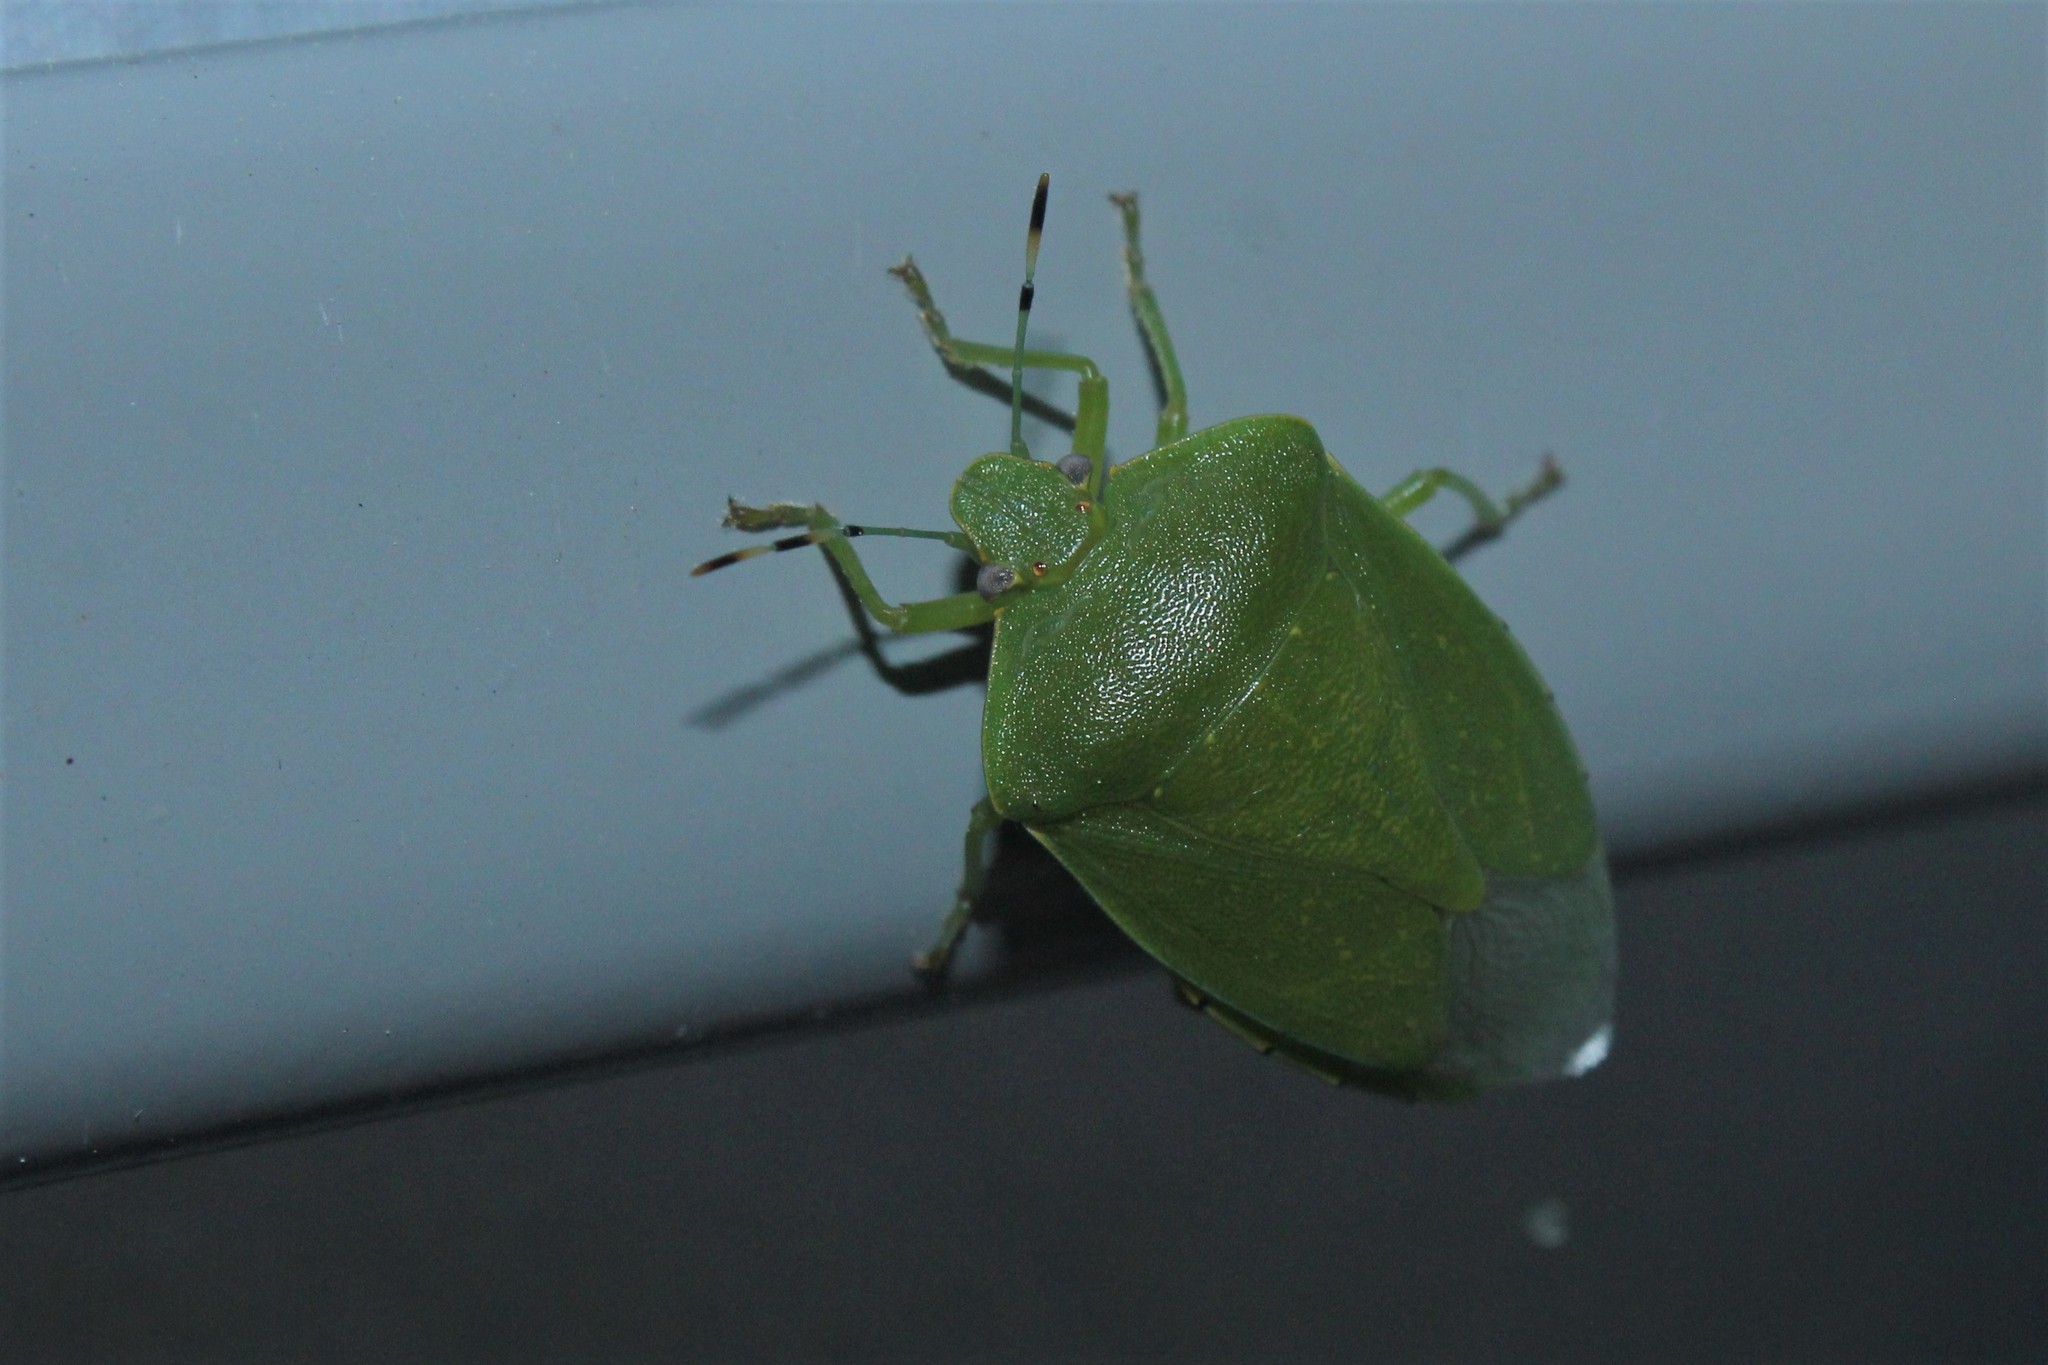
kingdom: Animalia
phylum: Arthropoda
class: Insecta
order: Hemiptera
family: Pentatomidae
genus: Chinavia
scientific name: Chinavia hilaris
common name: Green stink bug
